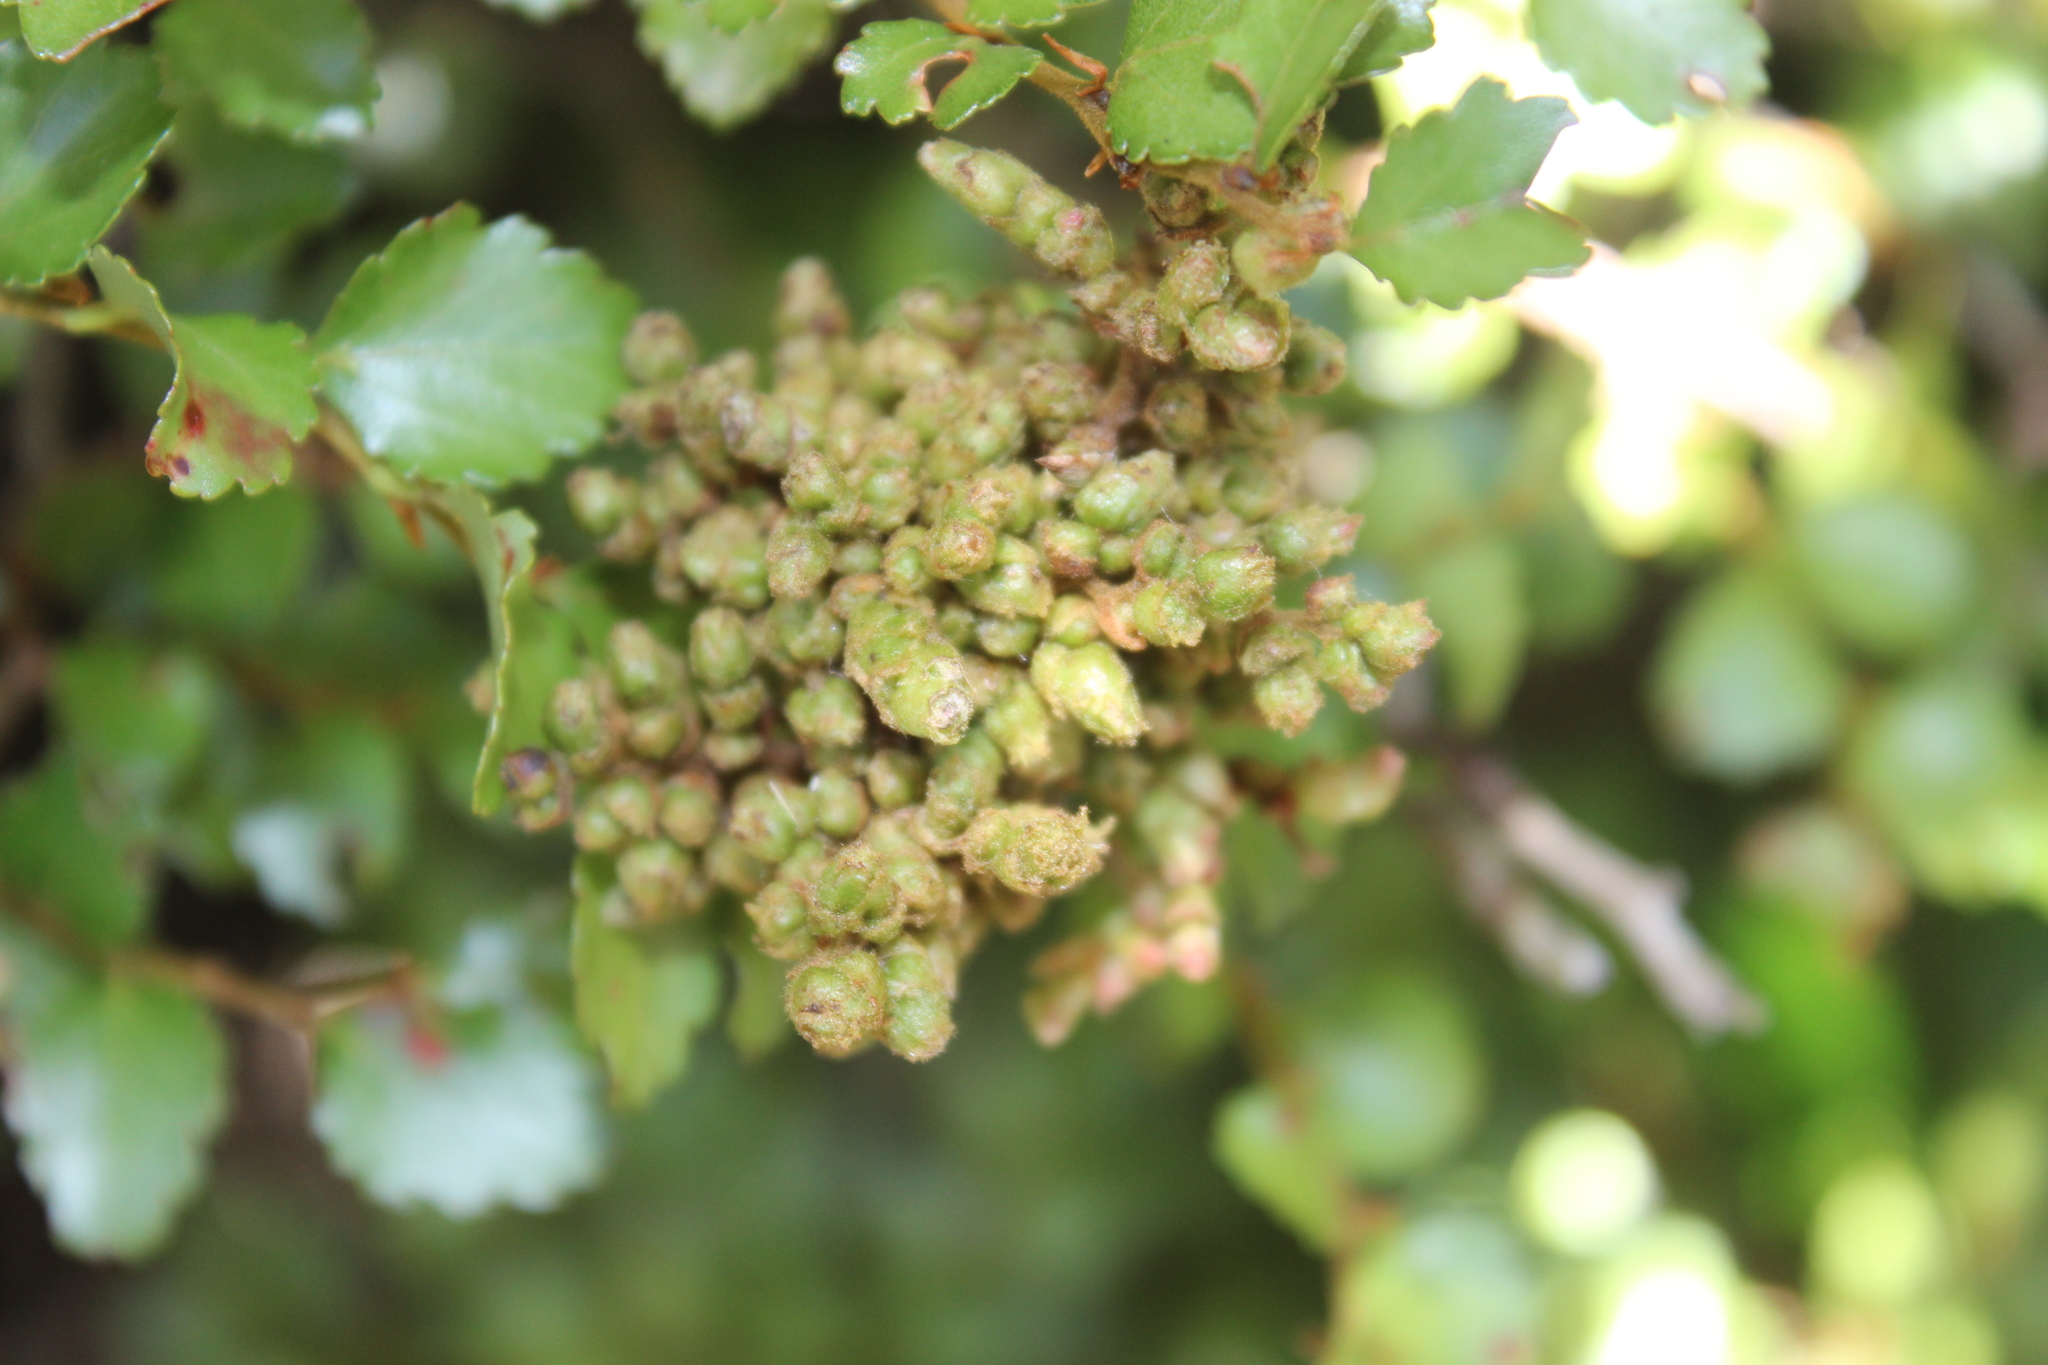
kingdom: Animalia
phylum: Arthropoda
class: Arachnida
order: Trombidiformes
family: Eriophyidae
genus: Cymoptus
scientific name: Cymoptus
